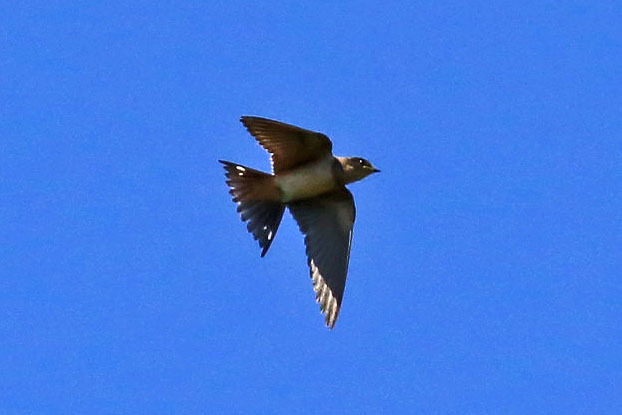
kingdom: Animalia
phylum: Chordata
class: Aves
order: Passeriformes
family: Hirundinidae
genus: Hirundo
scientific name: Hirundo rustica
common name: Barn swallow
